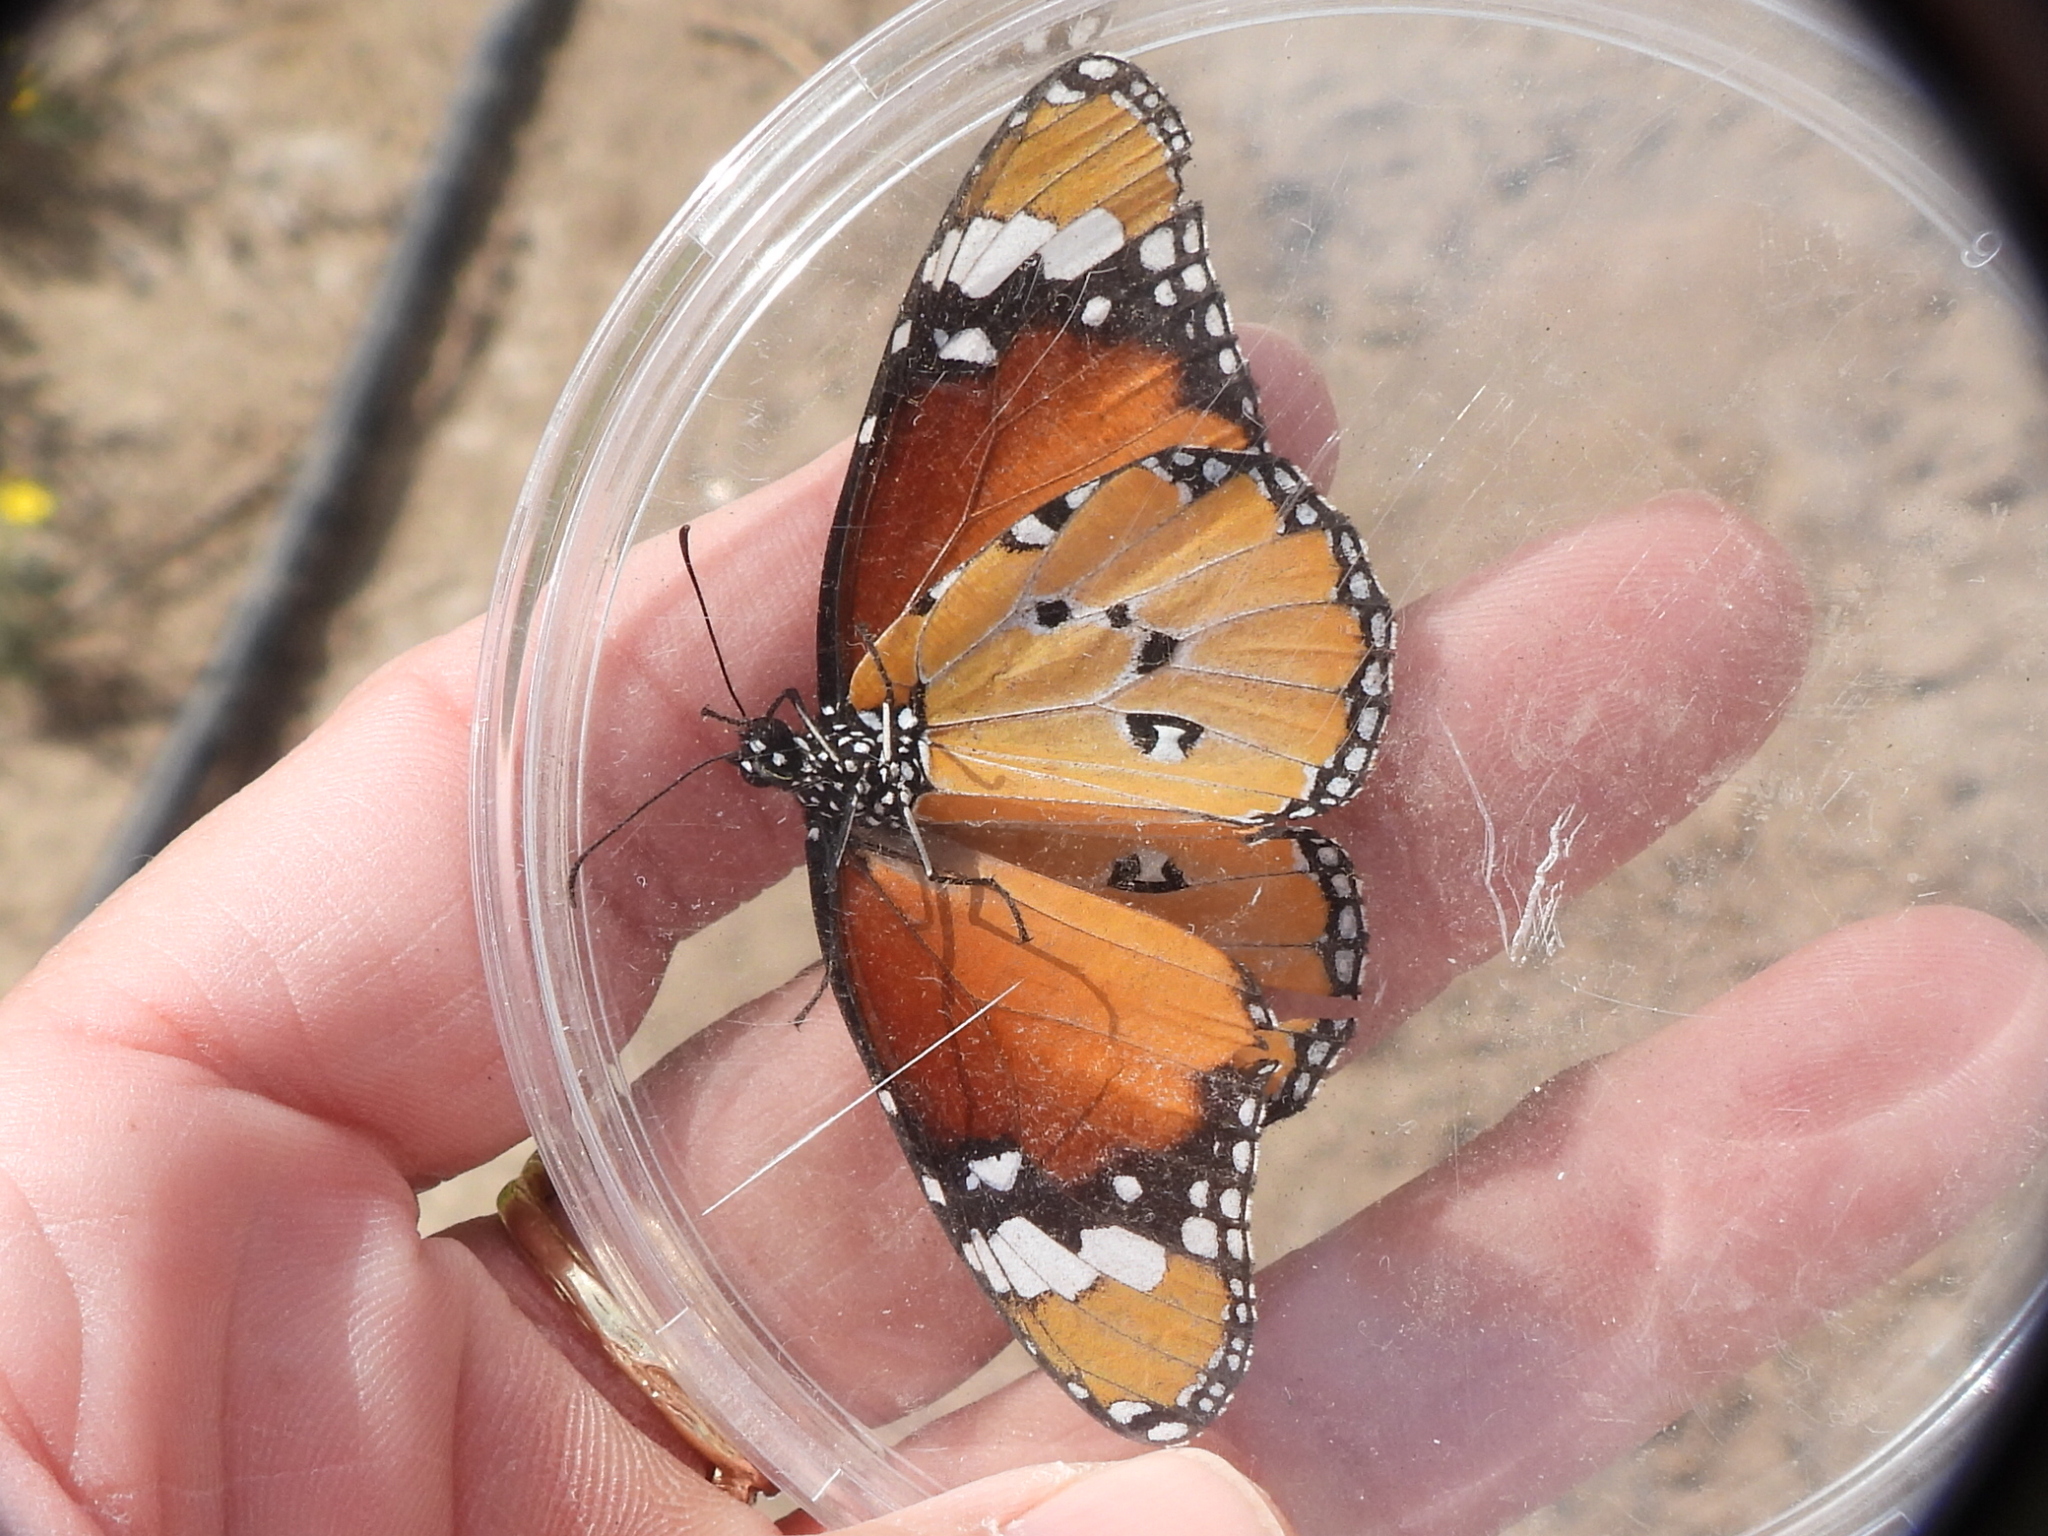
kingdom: Animalia
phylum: Arthropoda
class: Insecta
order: Lepidoptera
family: Nymphalidae
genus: Danaus
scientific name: Danaus chrysippus
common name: Plain tiger
